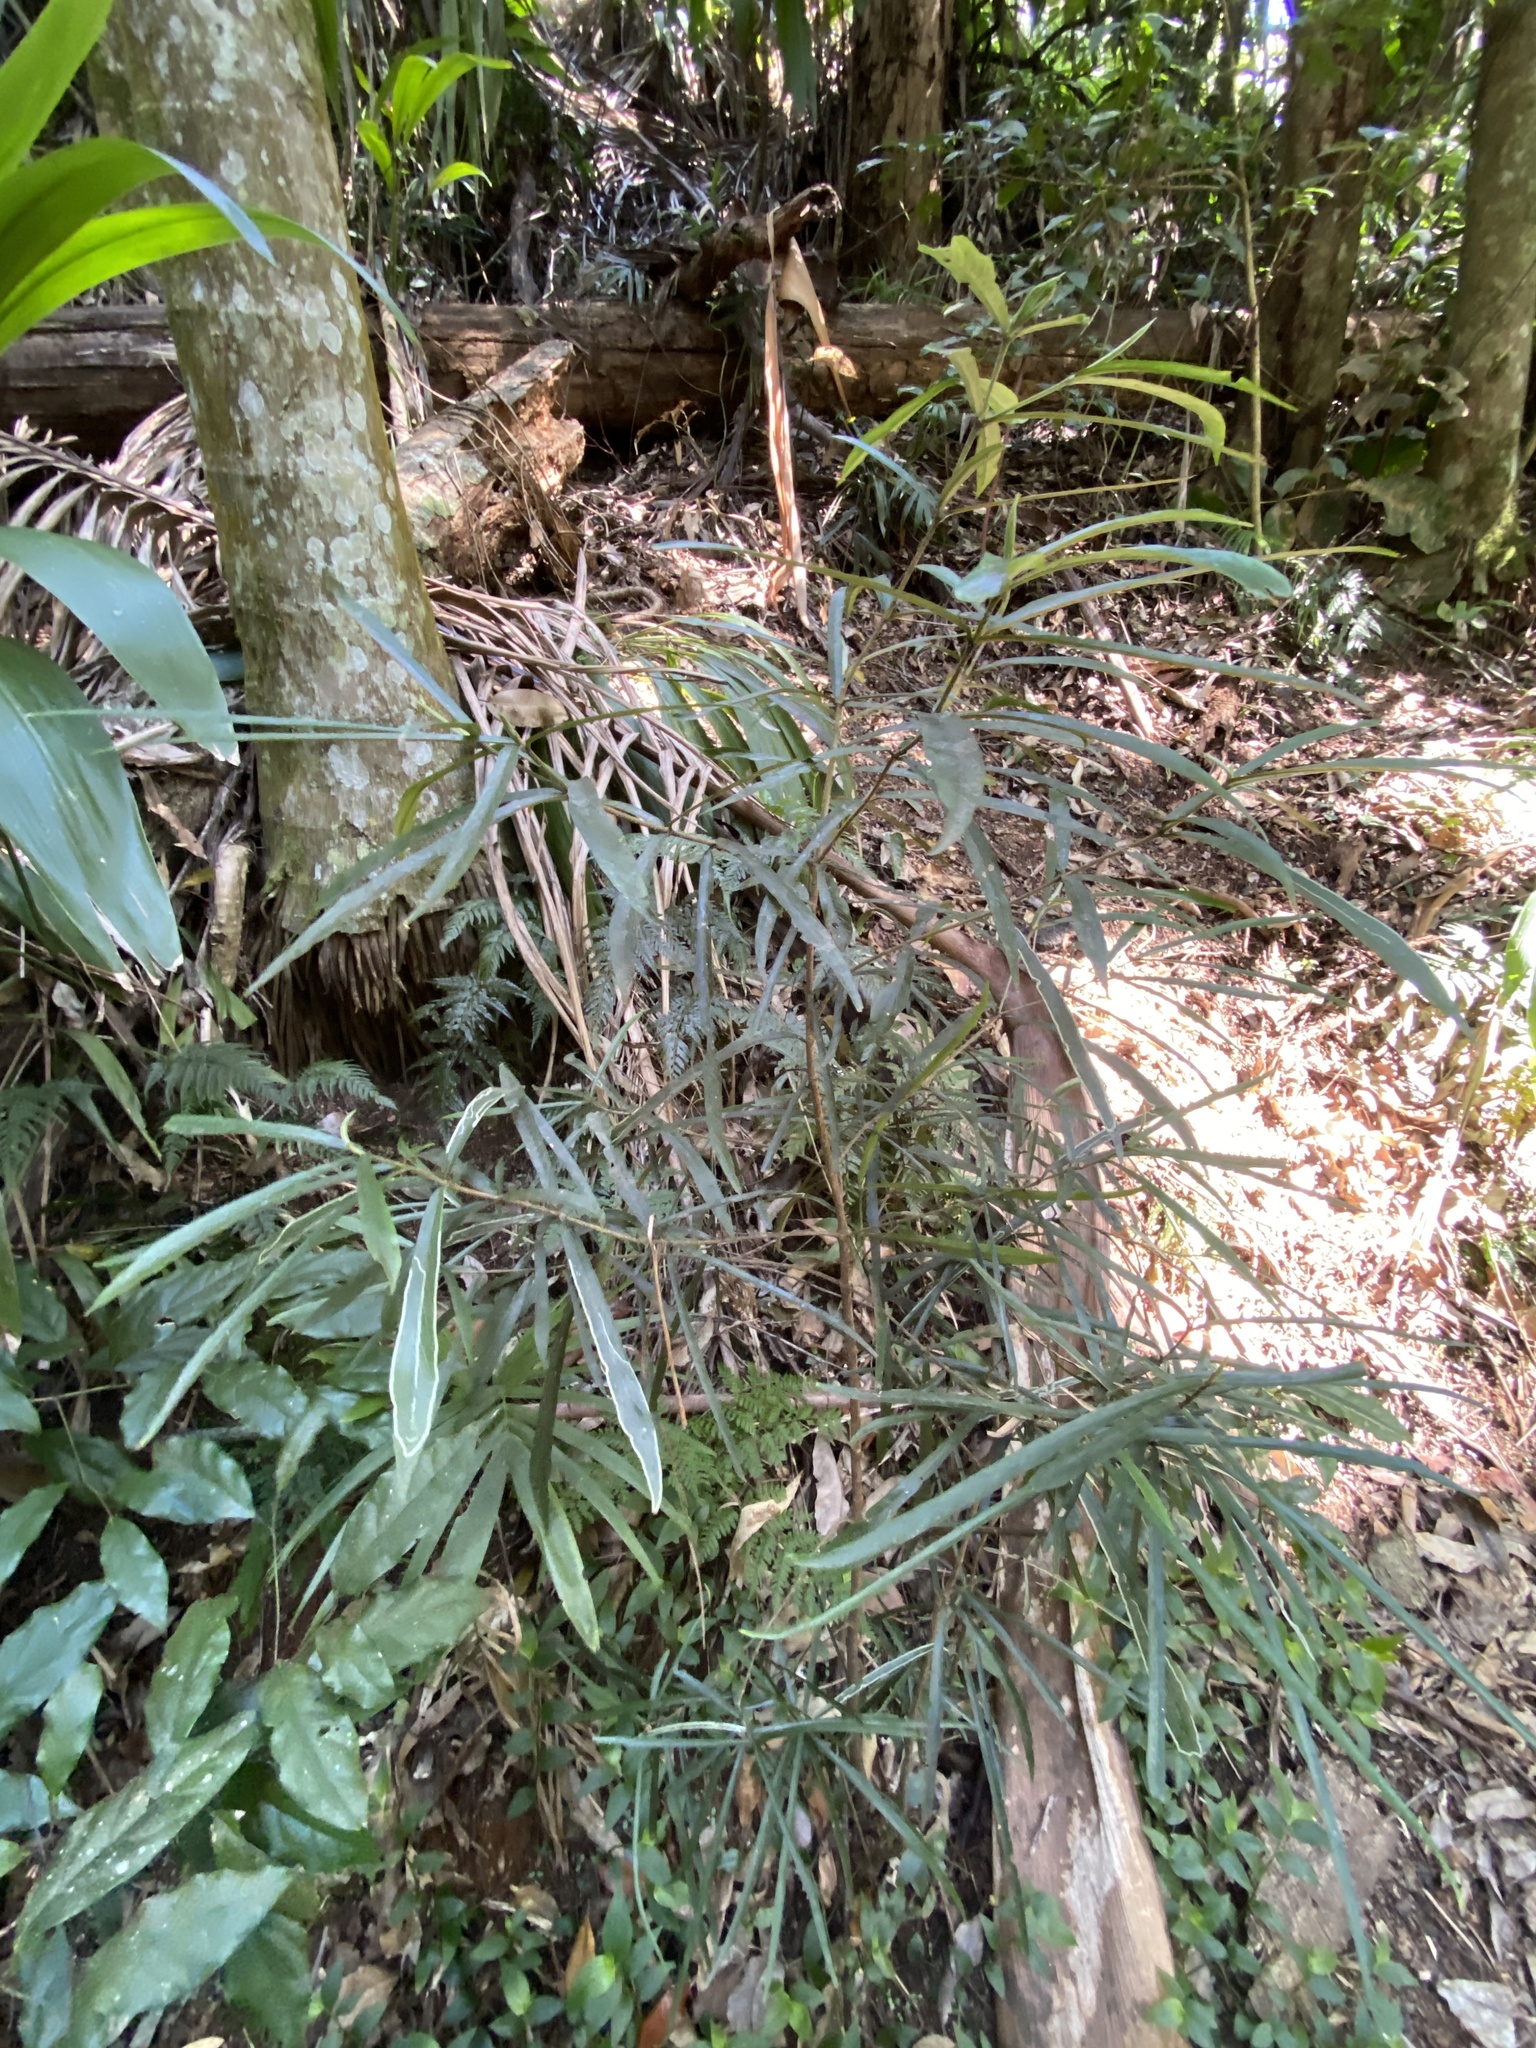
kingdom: Plantae
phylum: Tracheophyta
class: Magnoliopsida
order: Gentianales
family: Rubiaceae
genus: Atractocarpus
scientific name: Atractocarpus chartaceus
